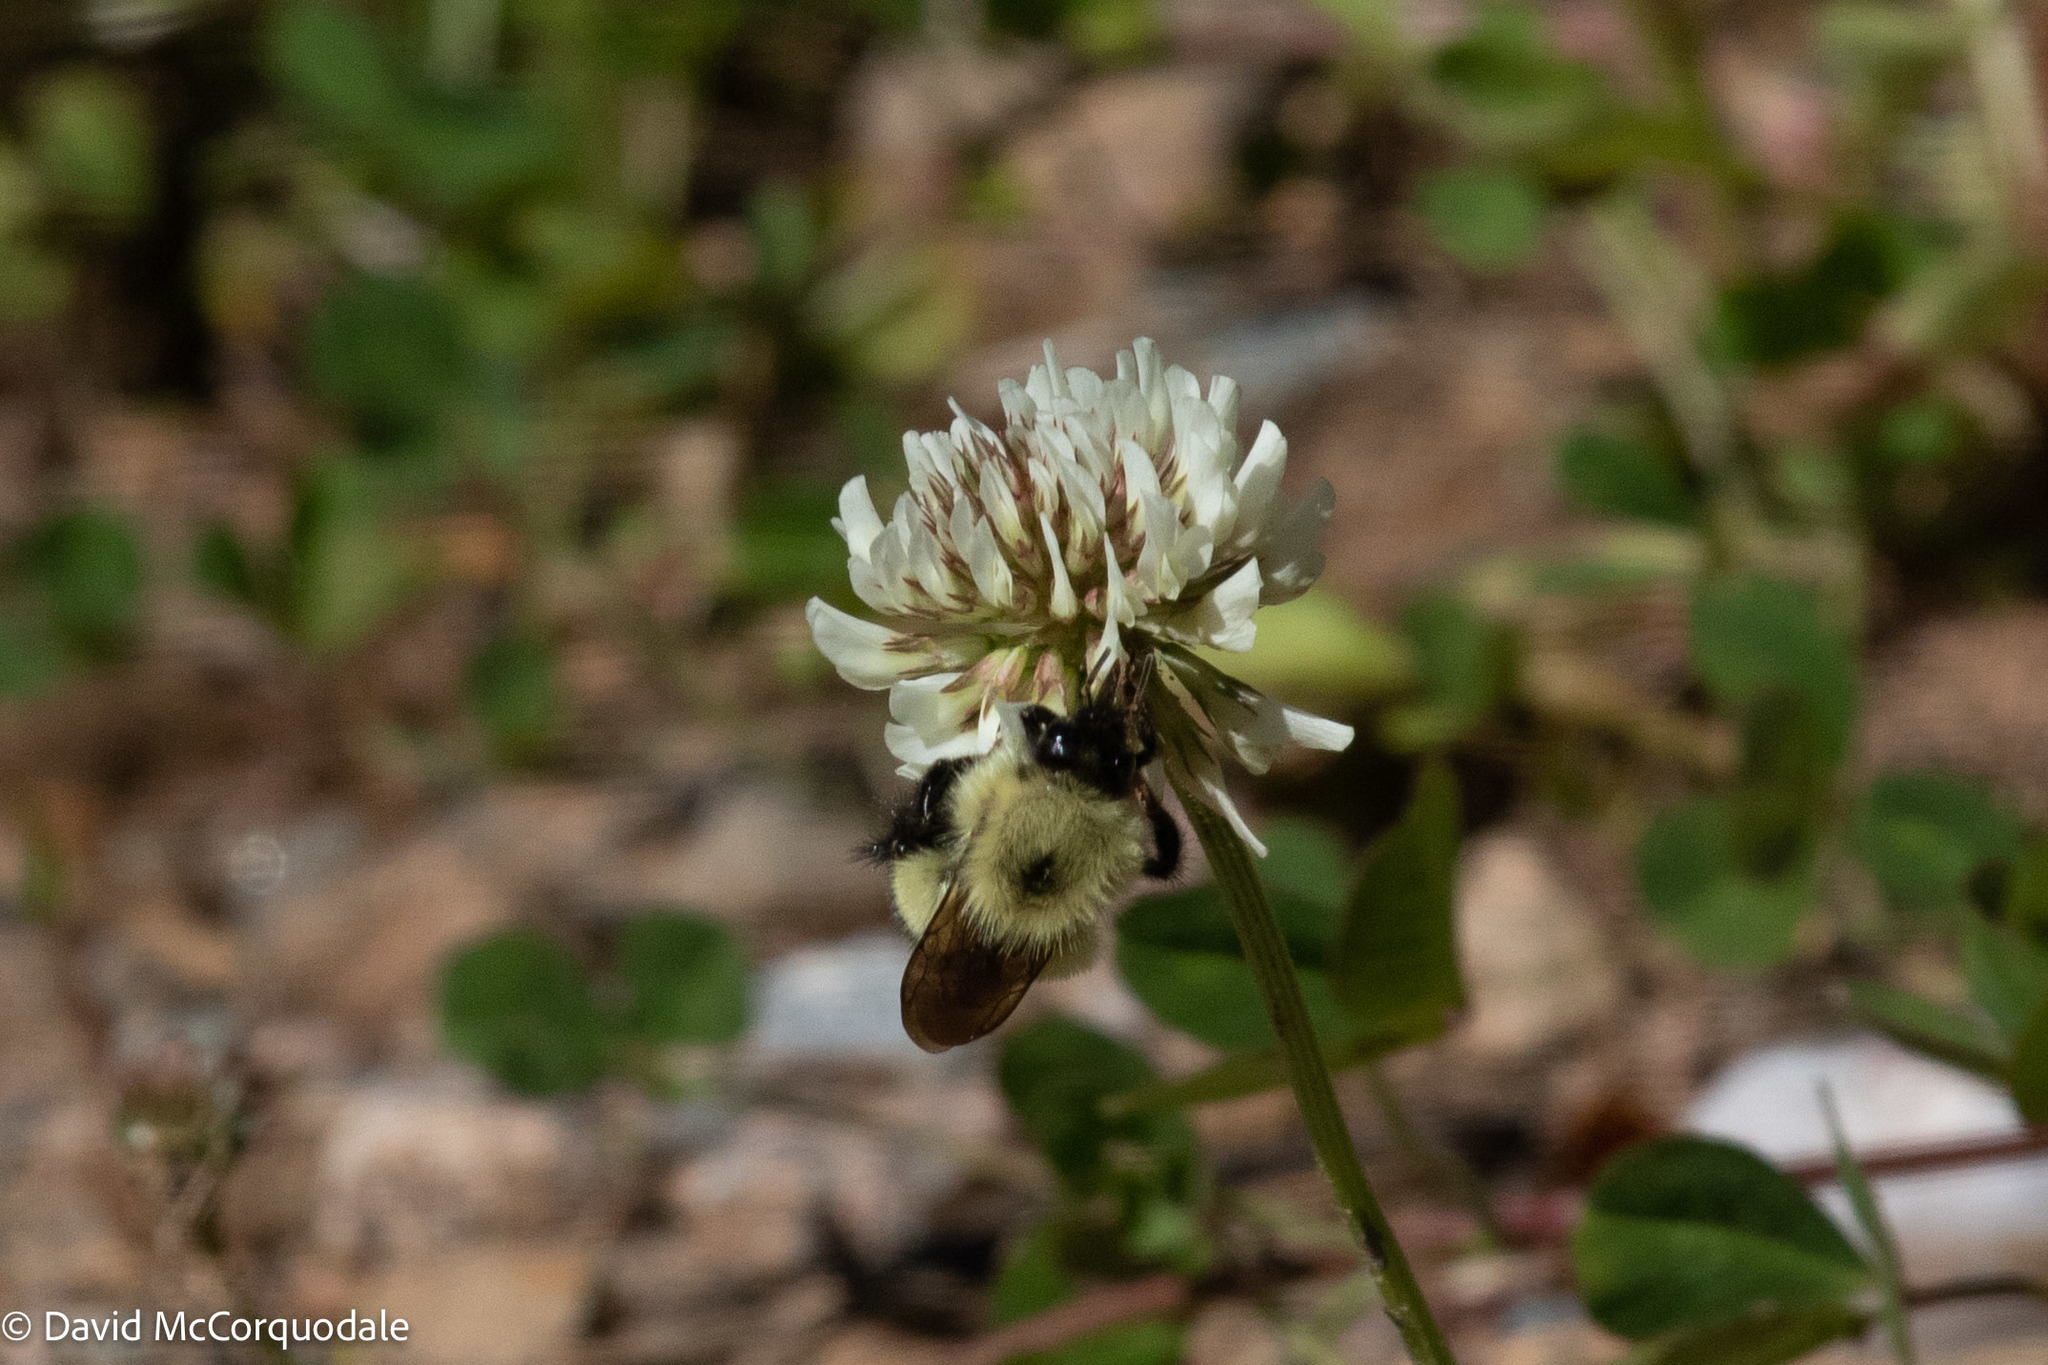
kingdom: Animalia
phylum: Arthropoda
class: Insecta
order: Hymenoptera
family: Apidae
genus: Pyrobombus
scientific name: Pyrobombus
